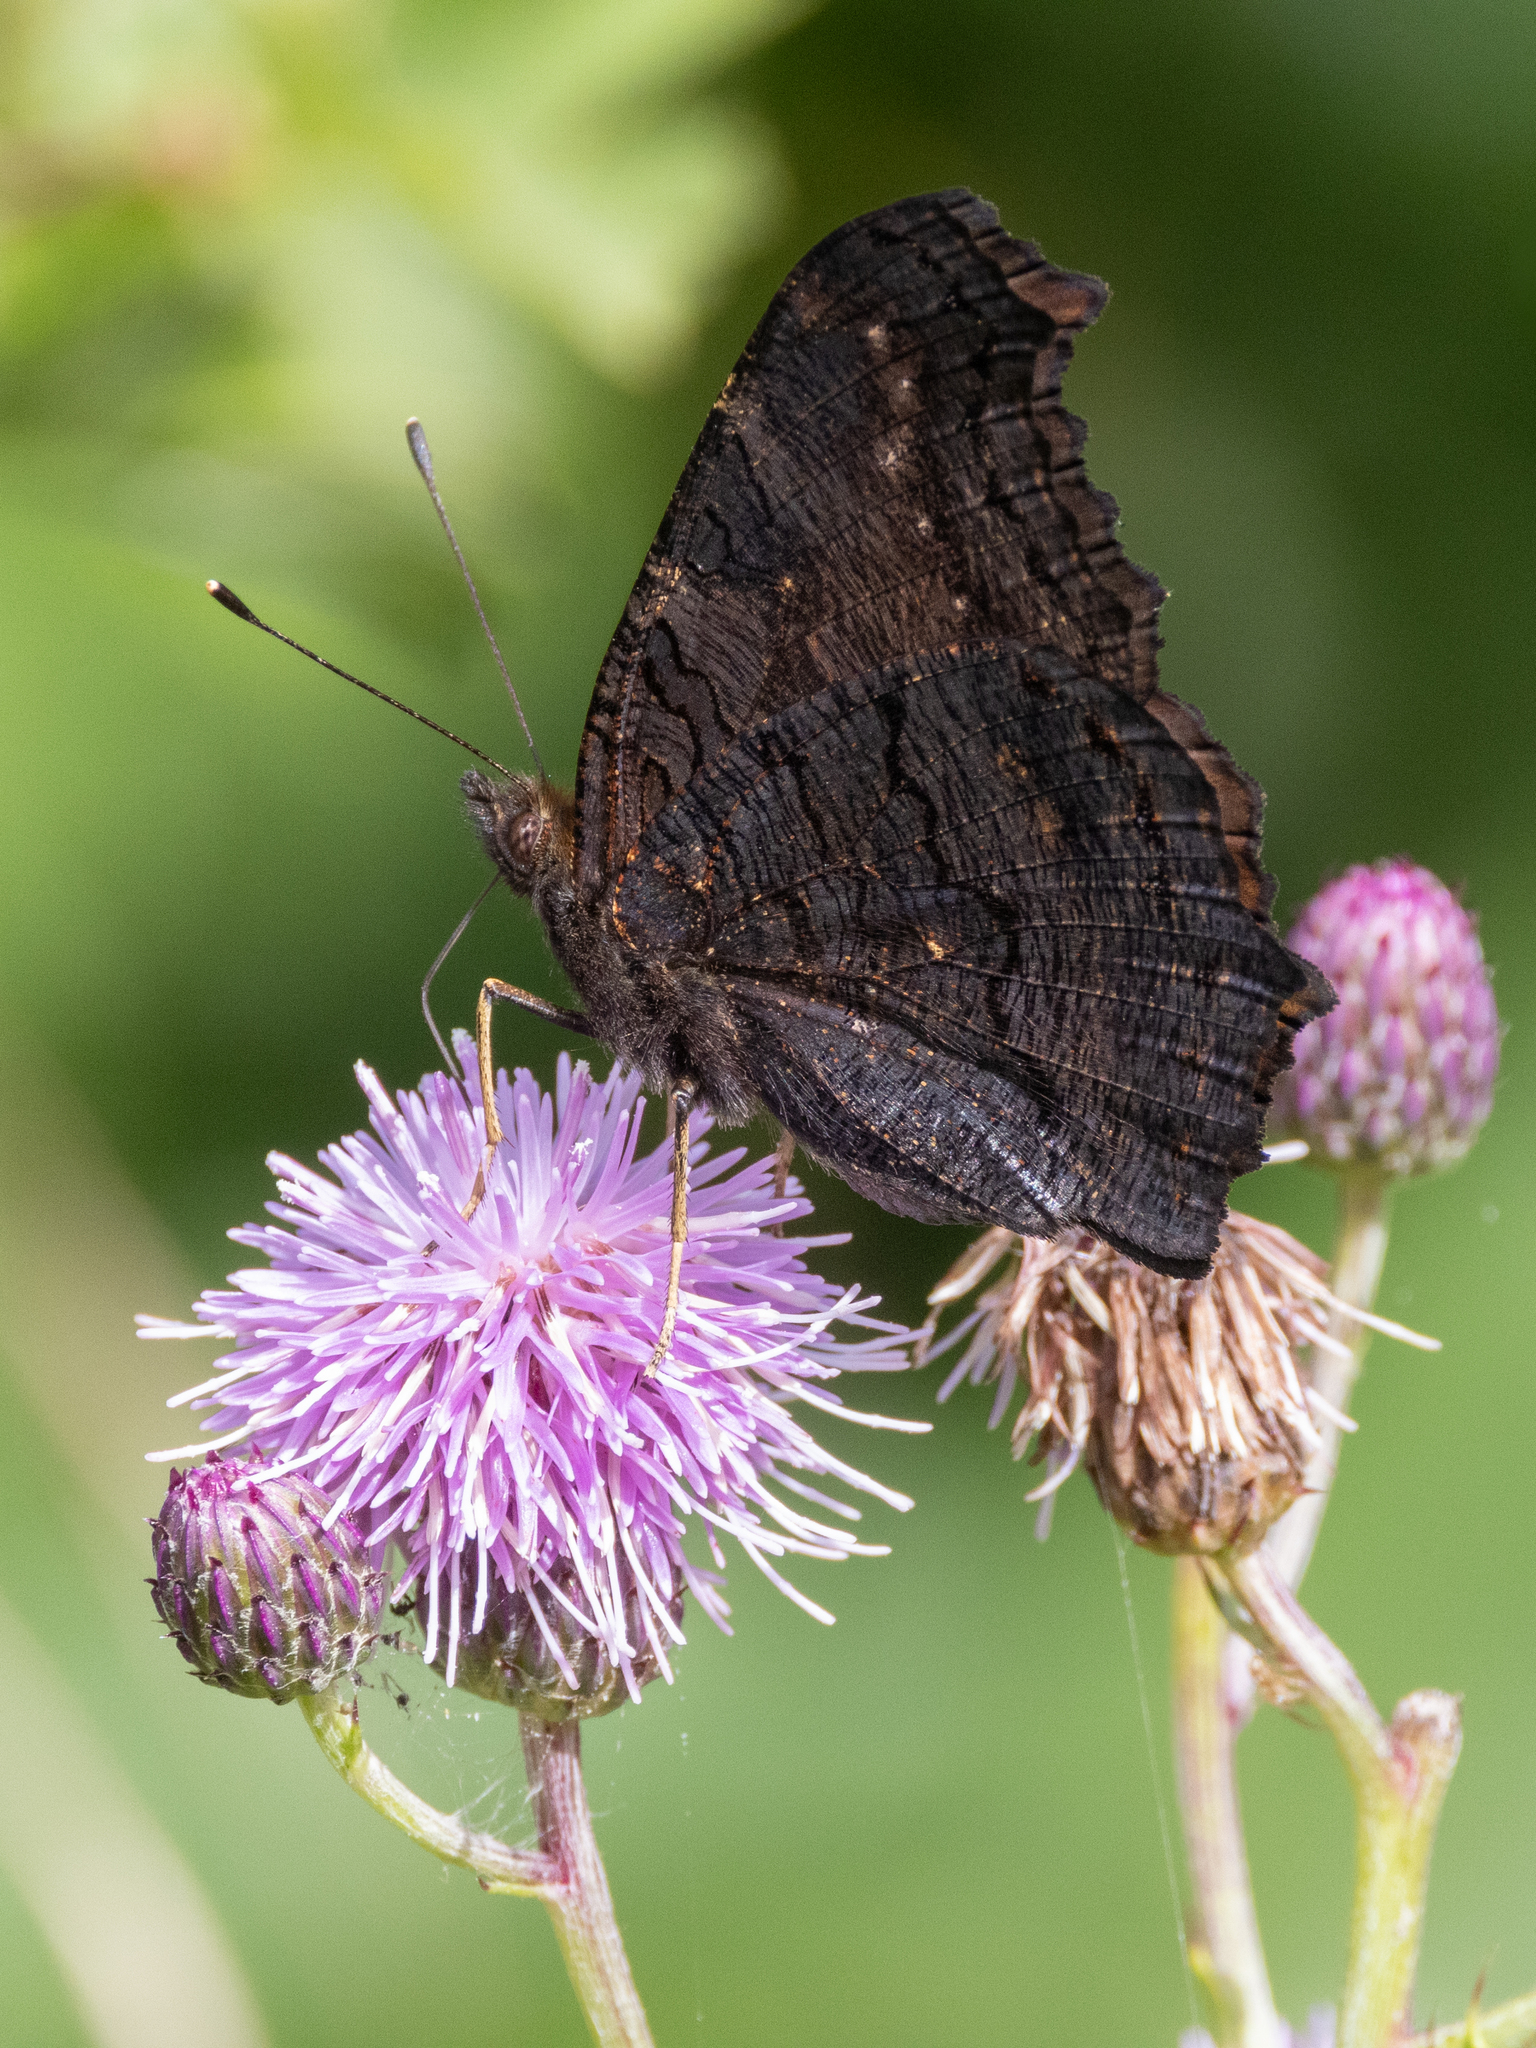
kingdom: Animalia
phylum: Arthropoda
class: Insecta
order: Lepidoptera
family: Nymphalidae
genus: Aglais
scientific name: Aglais io
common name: Peacock
